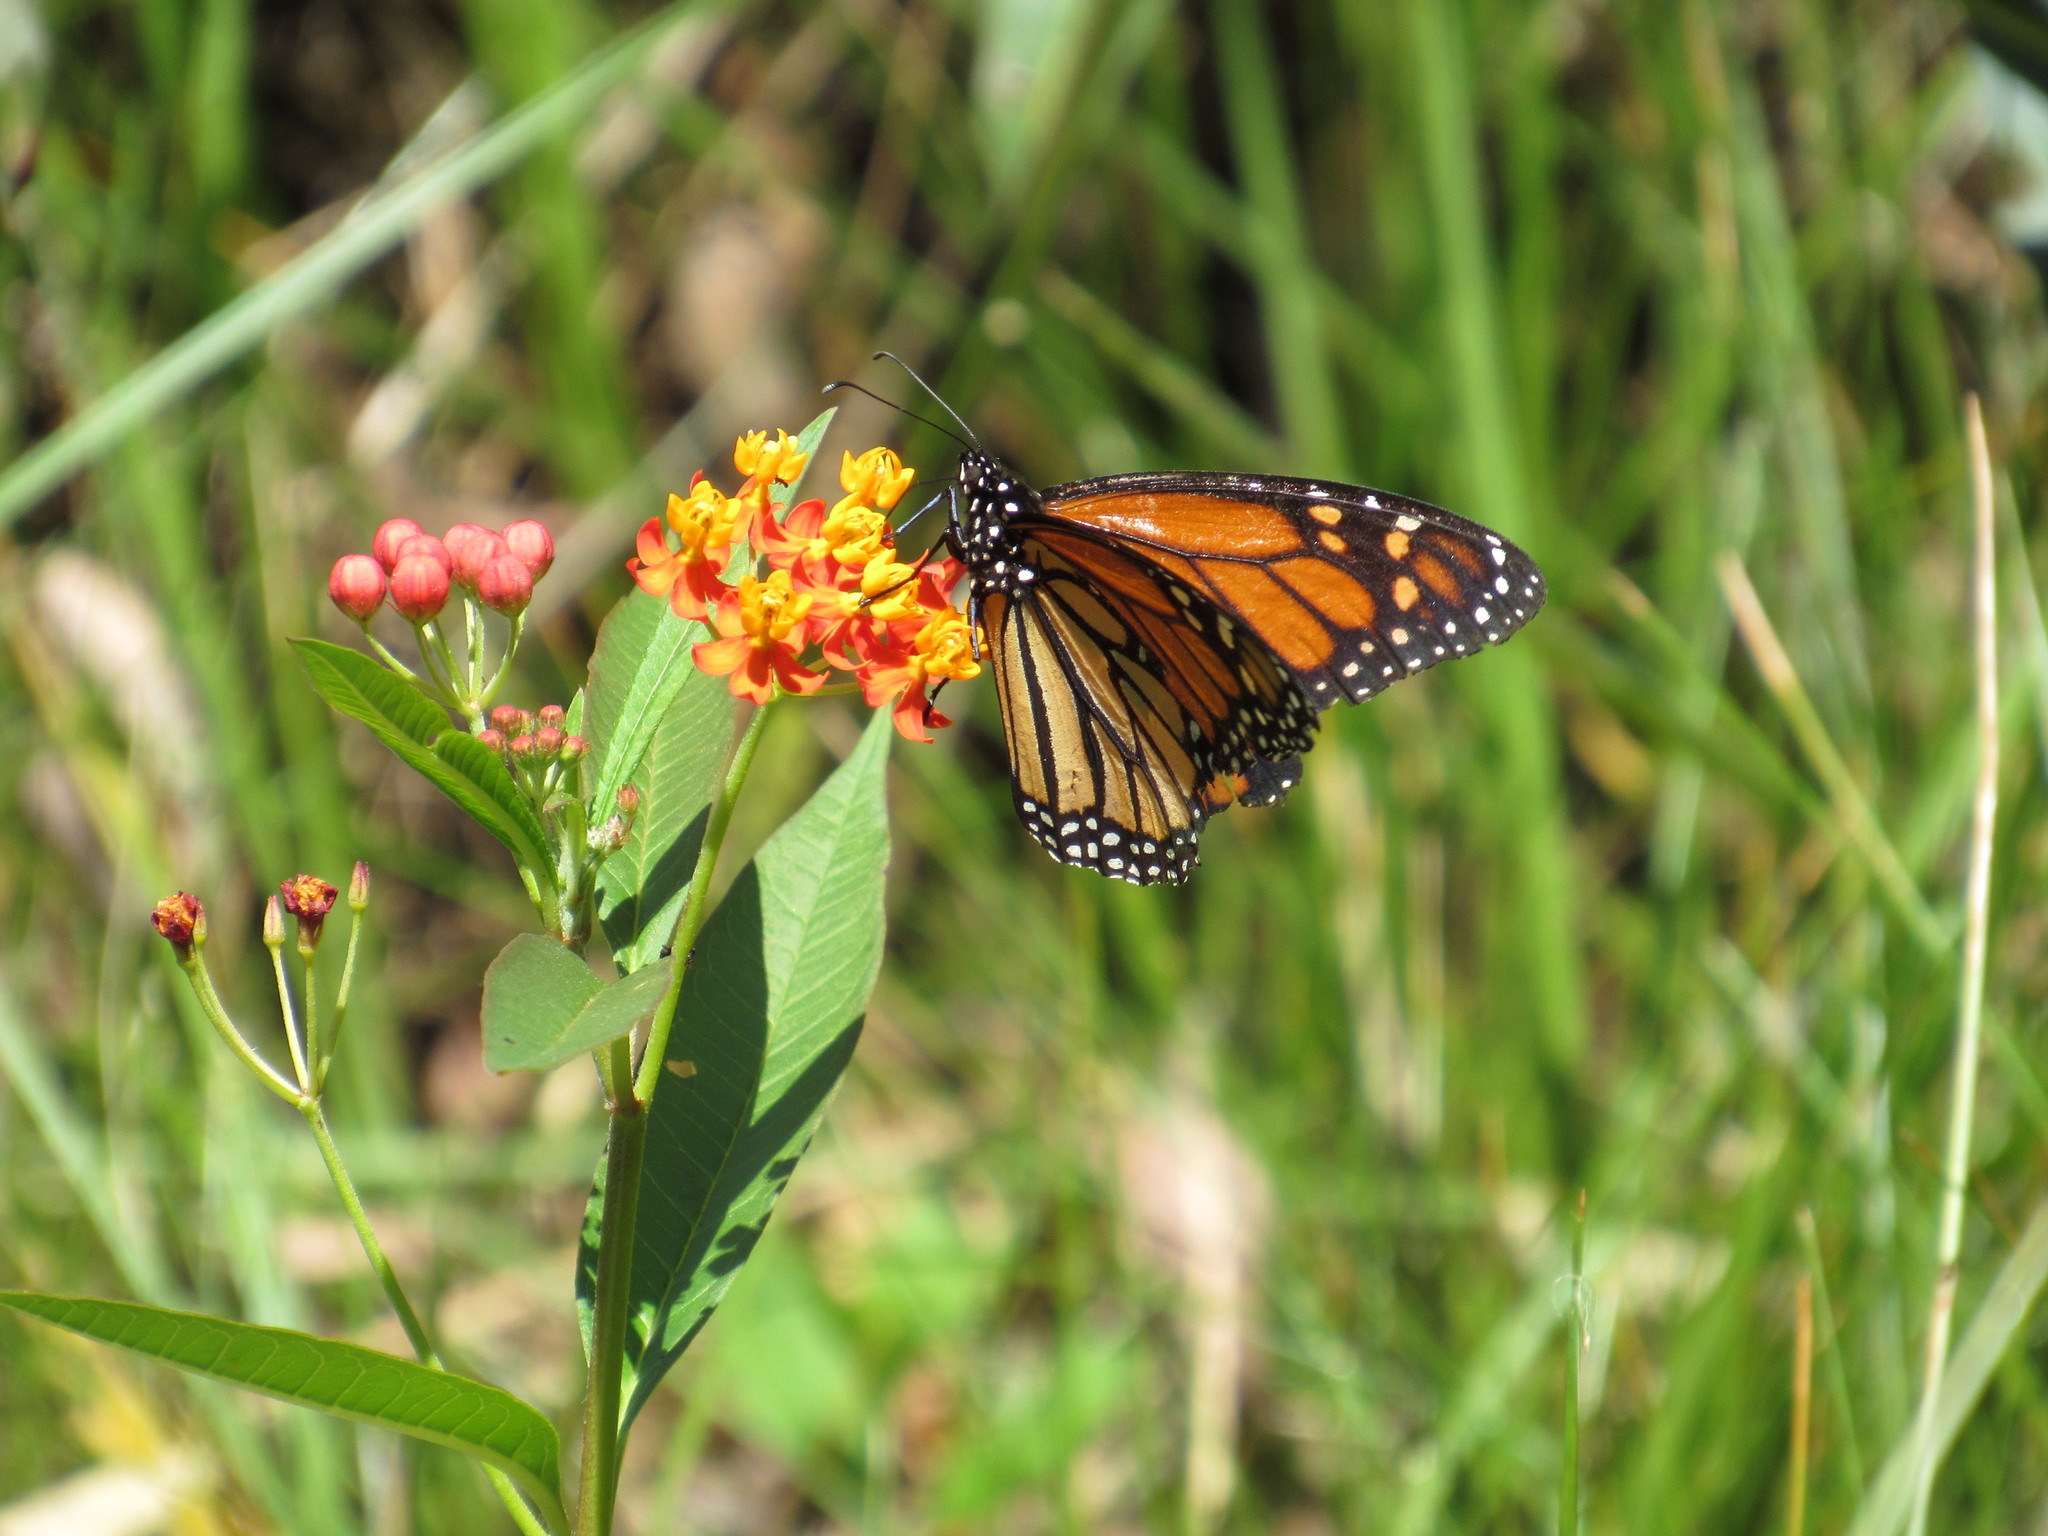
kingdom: Animalia
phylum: Arthropoda
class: Insecta
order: Lepidoptera
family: Nymphalidae
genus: Danaus
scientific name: Danaus plexippus
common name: Monarch
